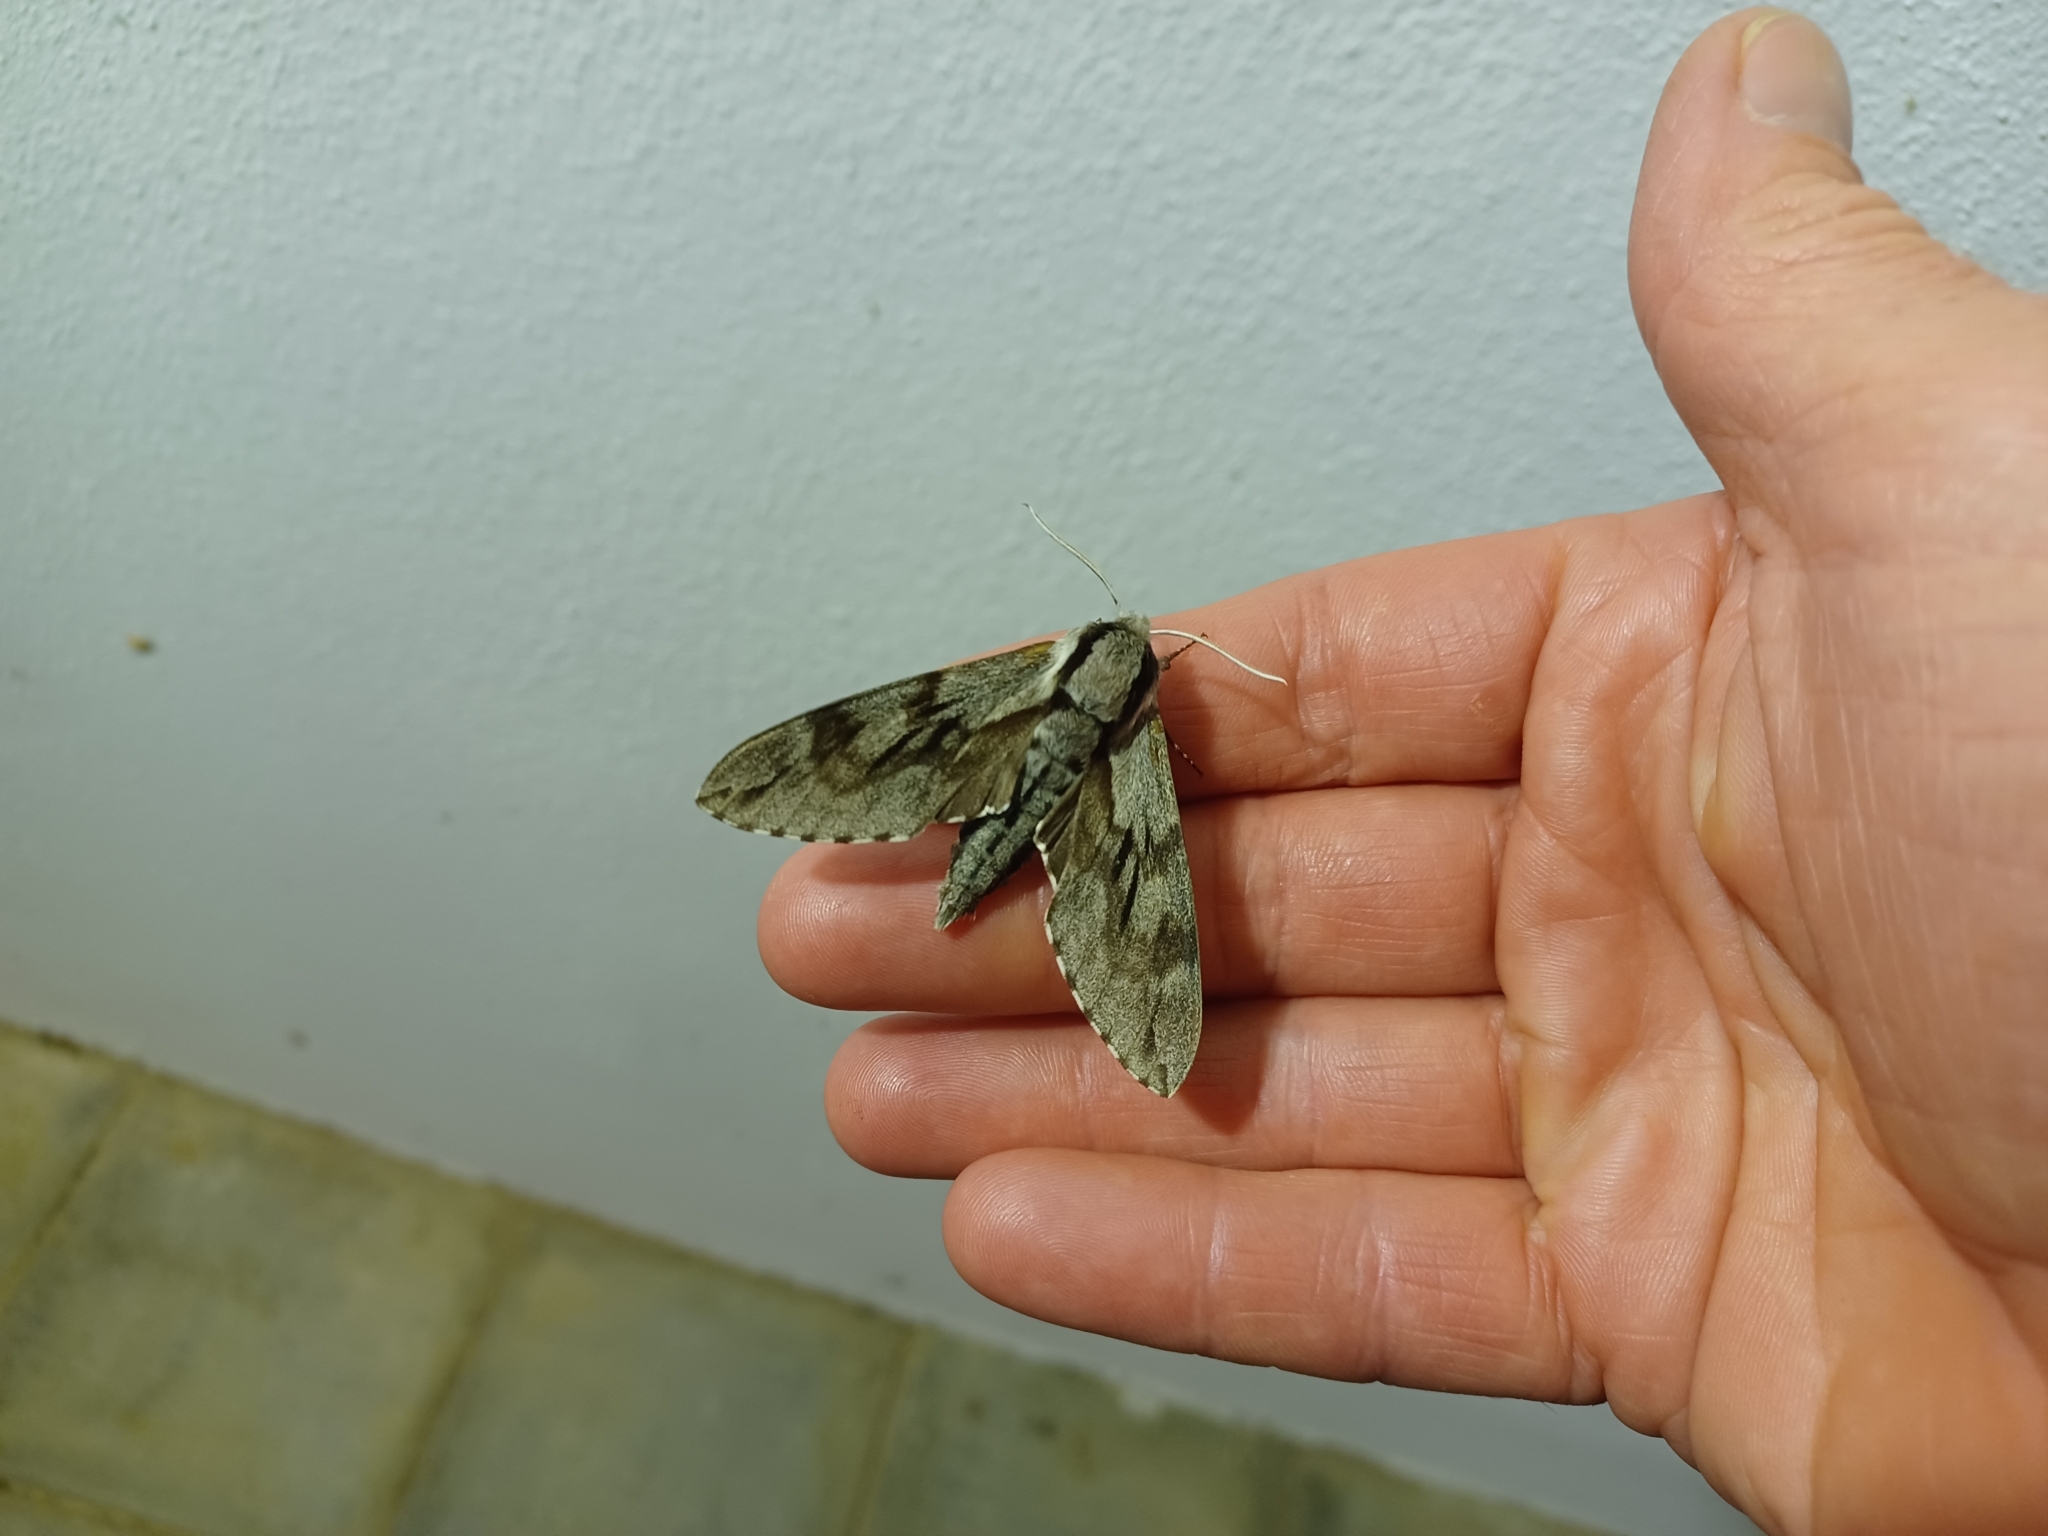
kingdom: Animalia
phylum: Arthropoda
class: Insecta
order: Lepidoptera
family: Sphingidae
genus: Sphinx
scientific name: Sphinx pinastri
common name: Pine hawk-moth
